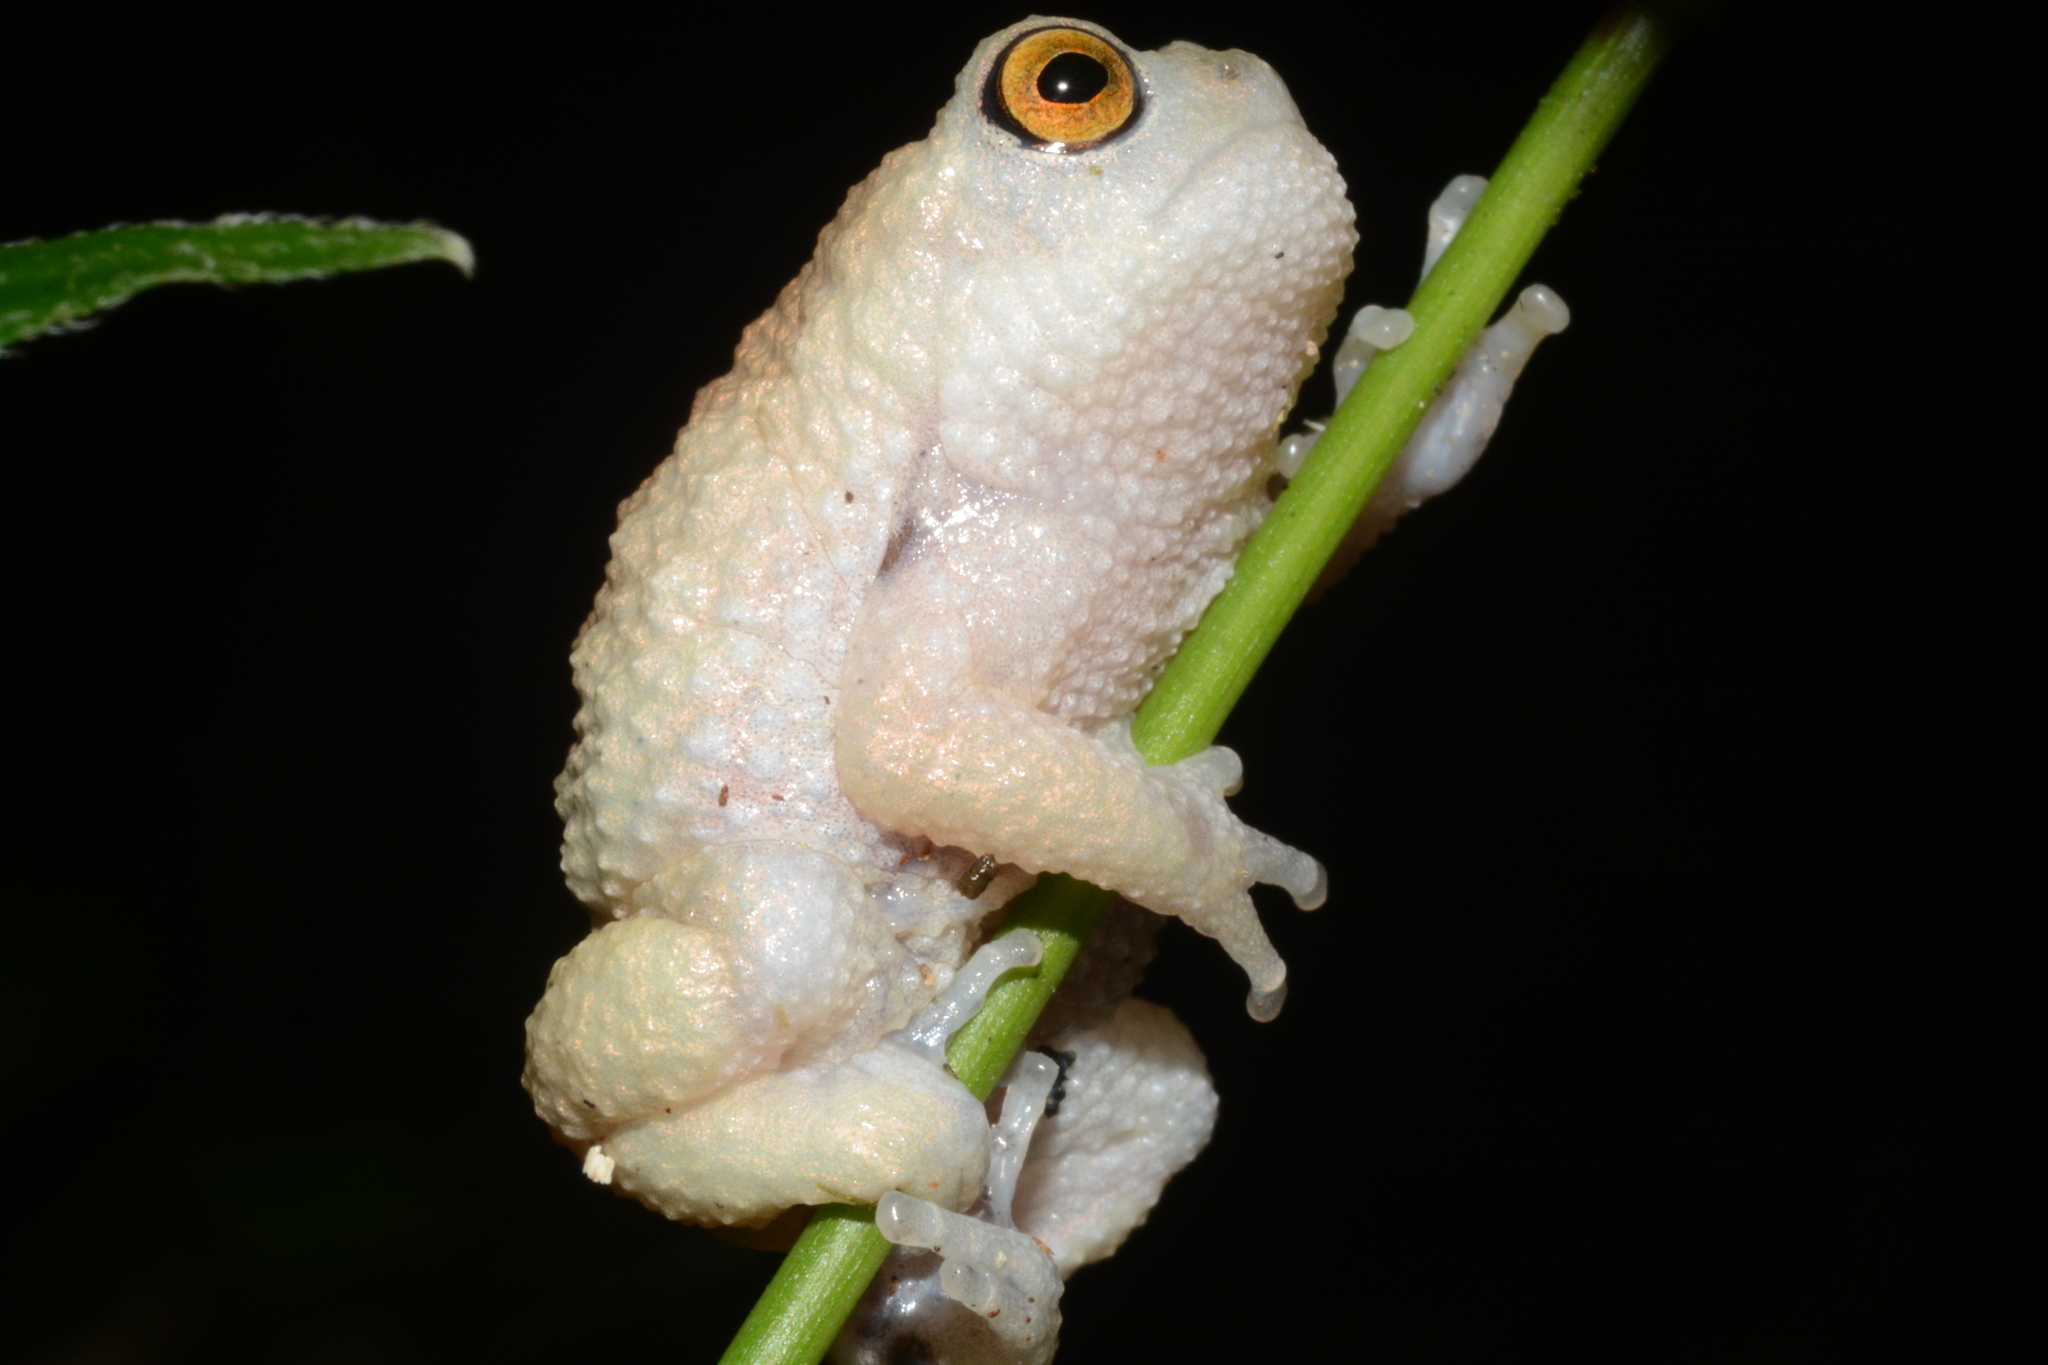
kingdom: Animalia
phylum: Chordata
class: Amphibia
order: Anura
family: Brevicipitidae
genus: Callulina
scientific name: Callulina meteora
